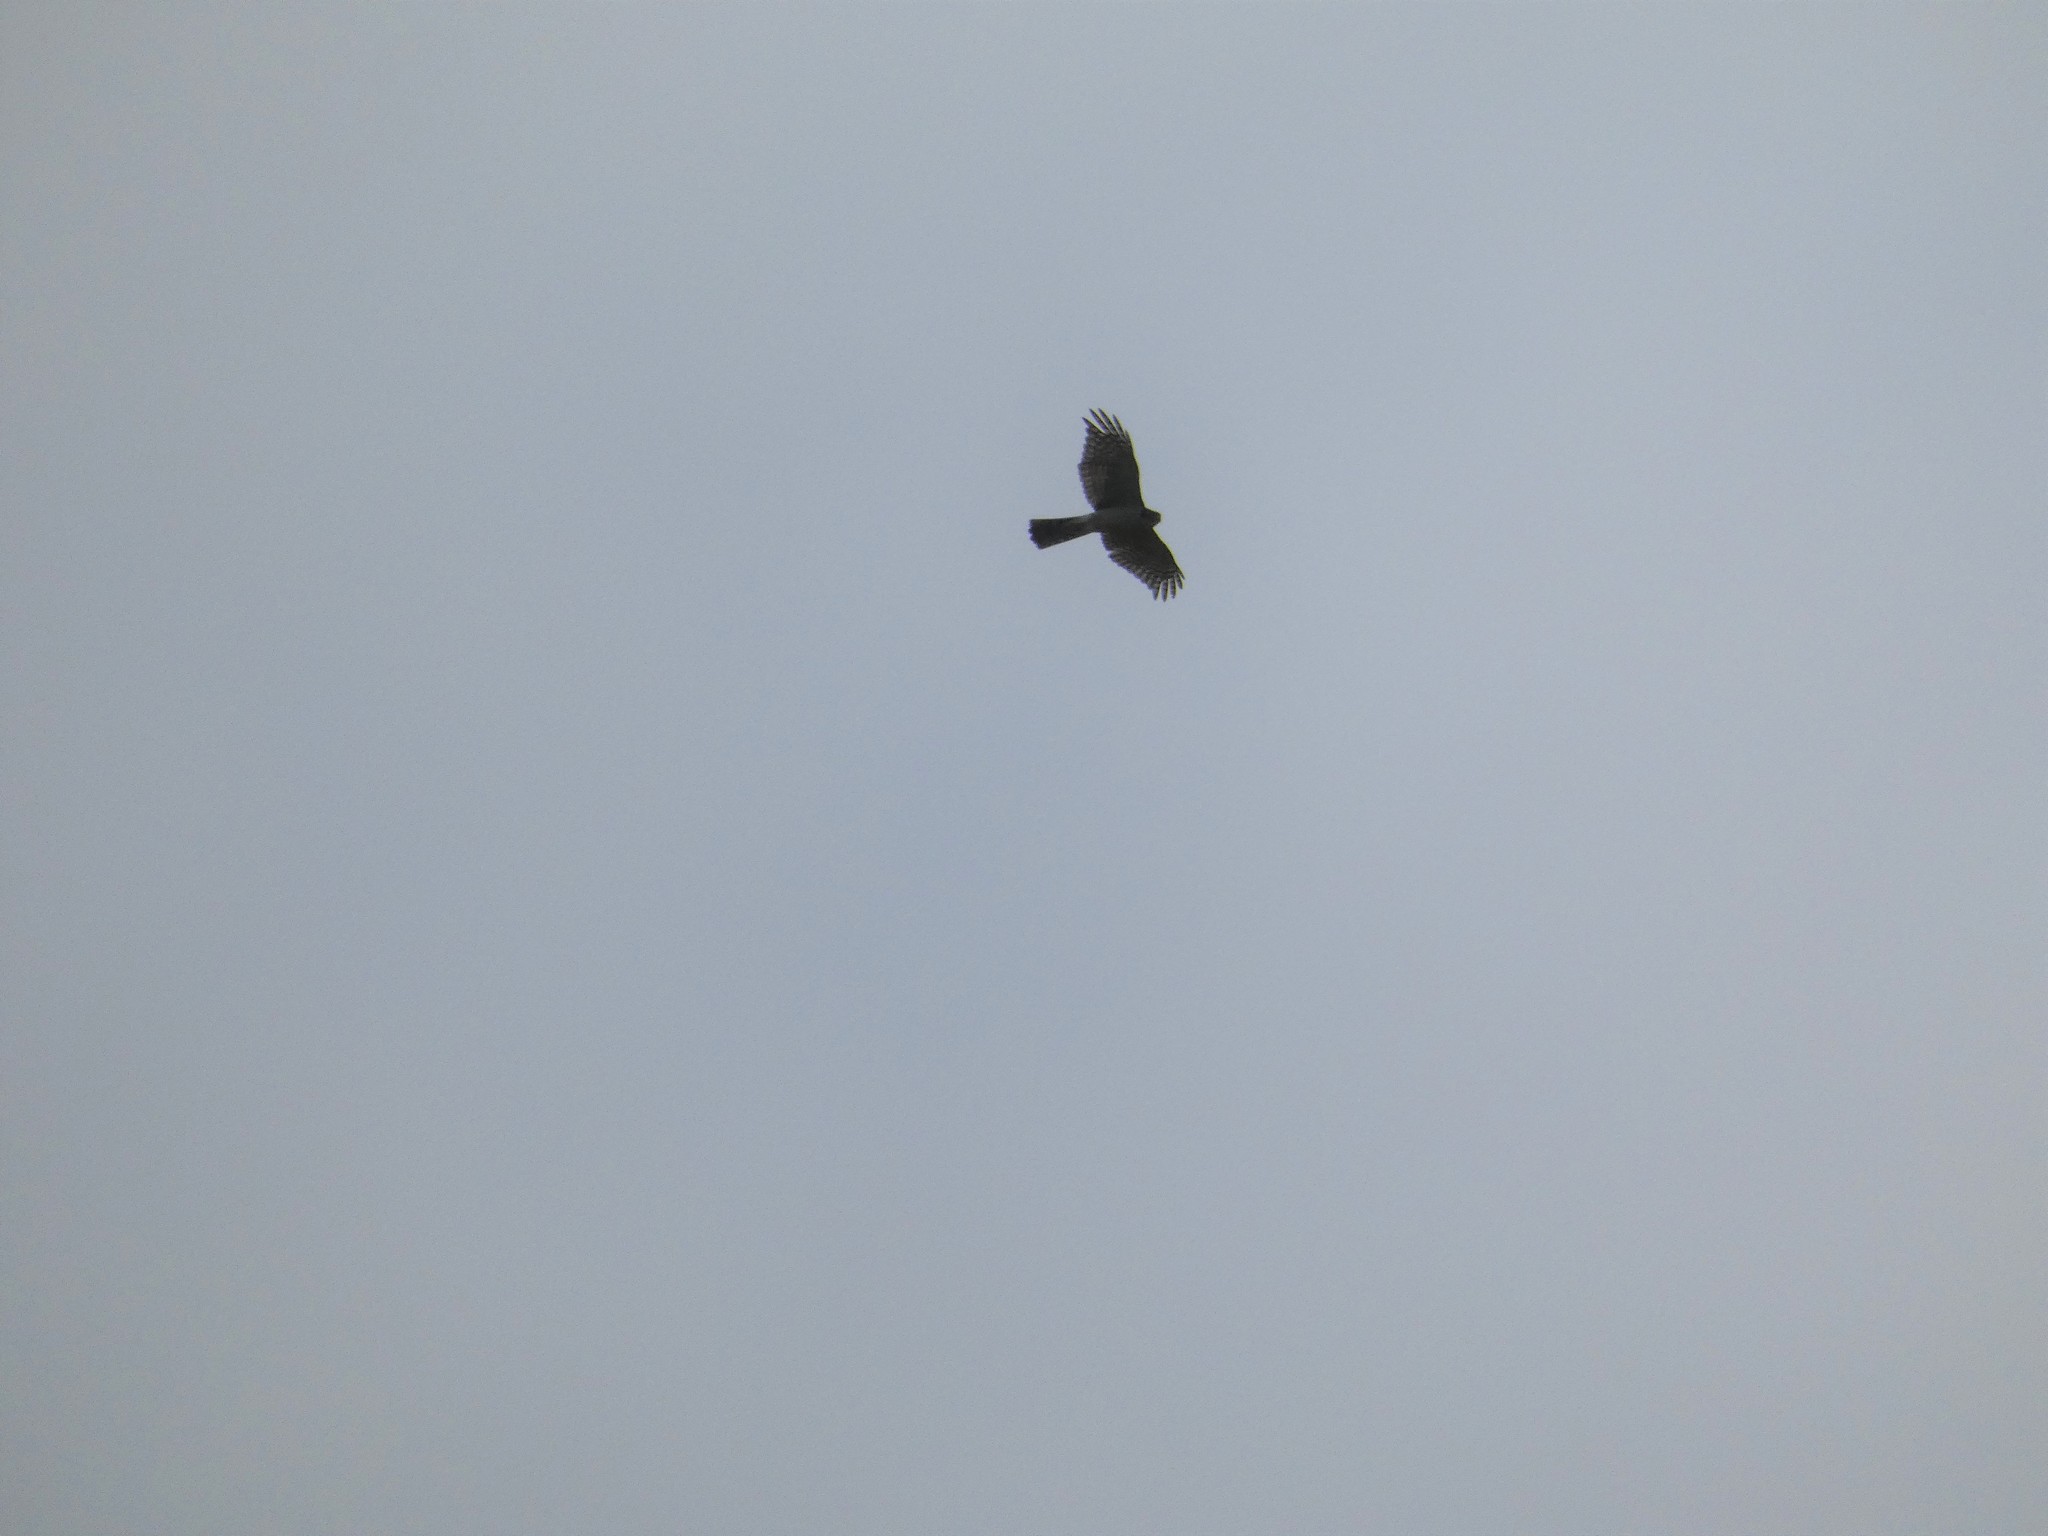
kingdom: Animalia
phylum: Chordata
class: Aves
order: Accipitriformes
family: Accipitridae
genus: Accipiter
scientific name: Accipiter nisus
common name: Eurasian sparrowhawk
